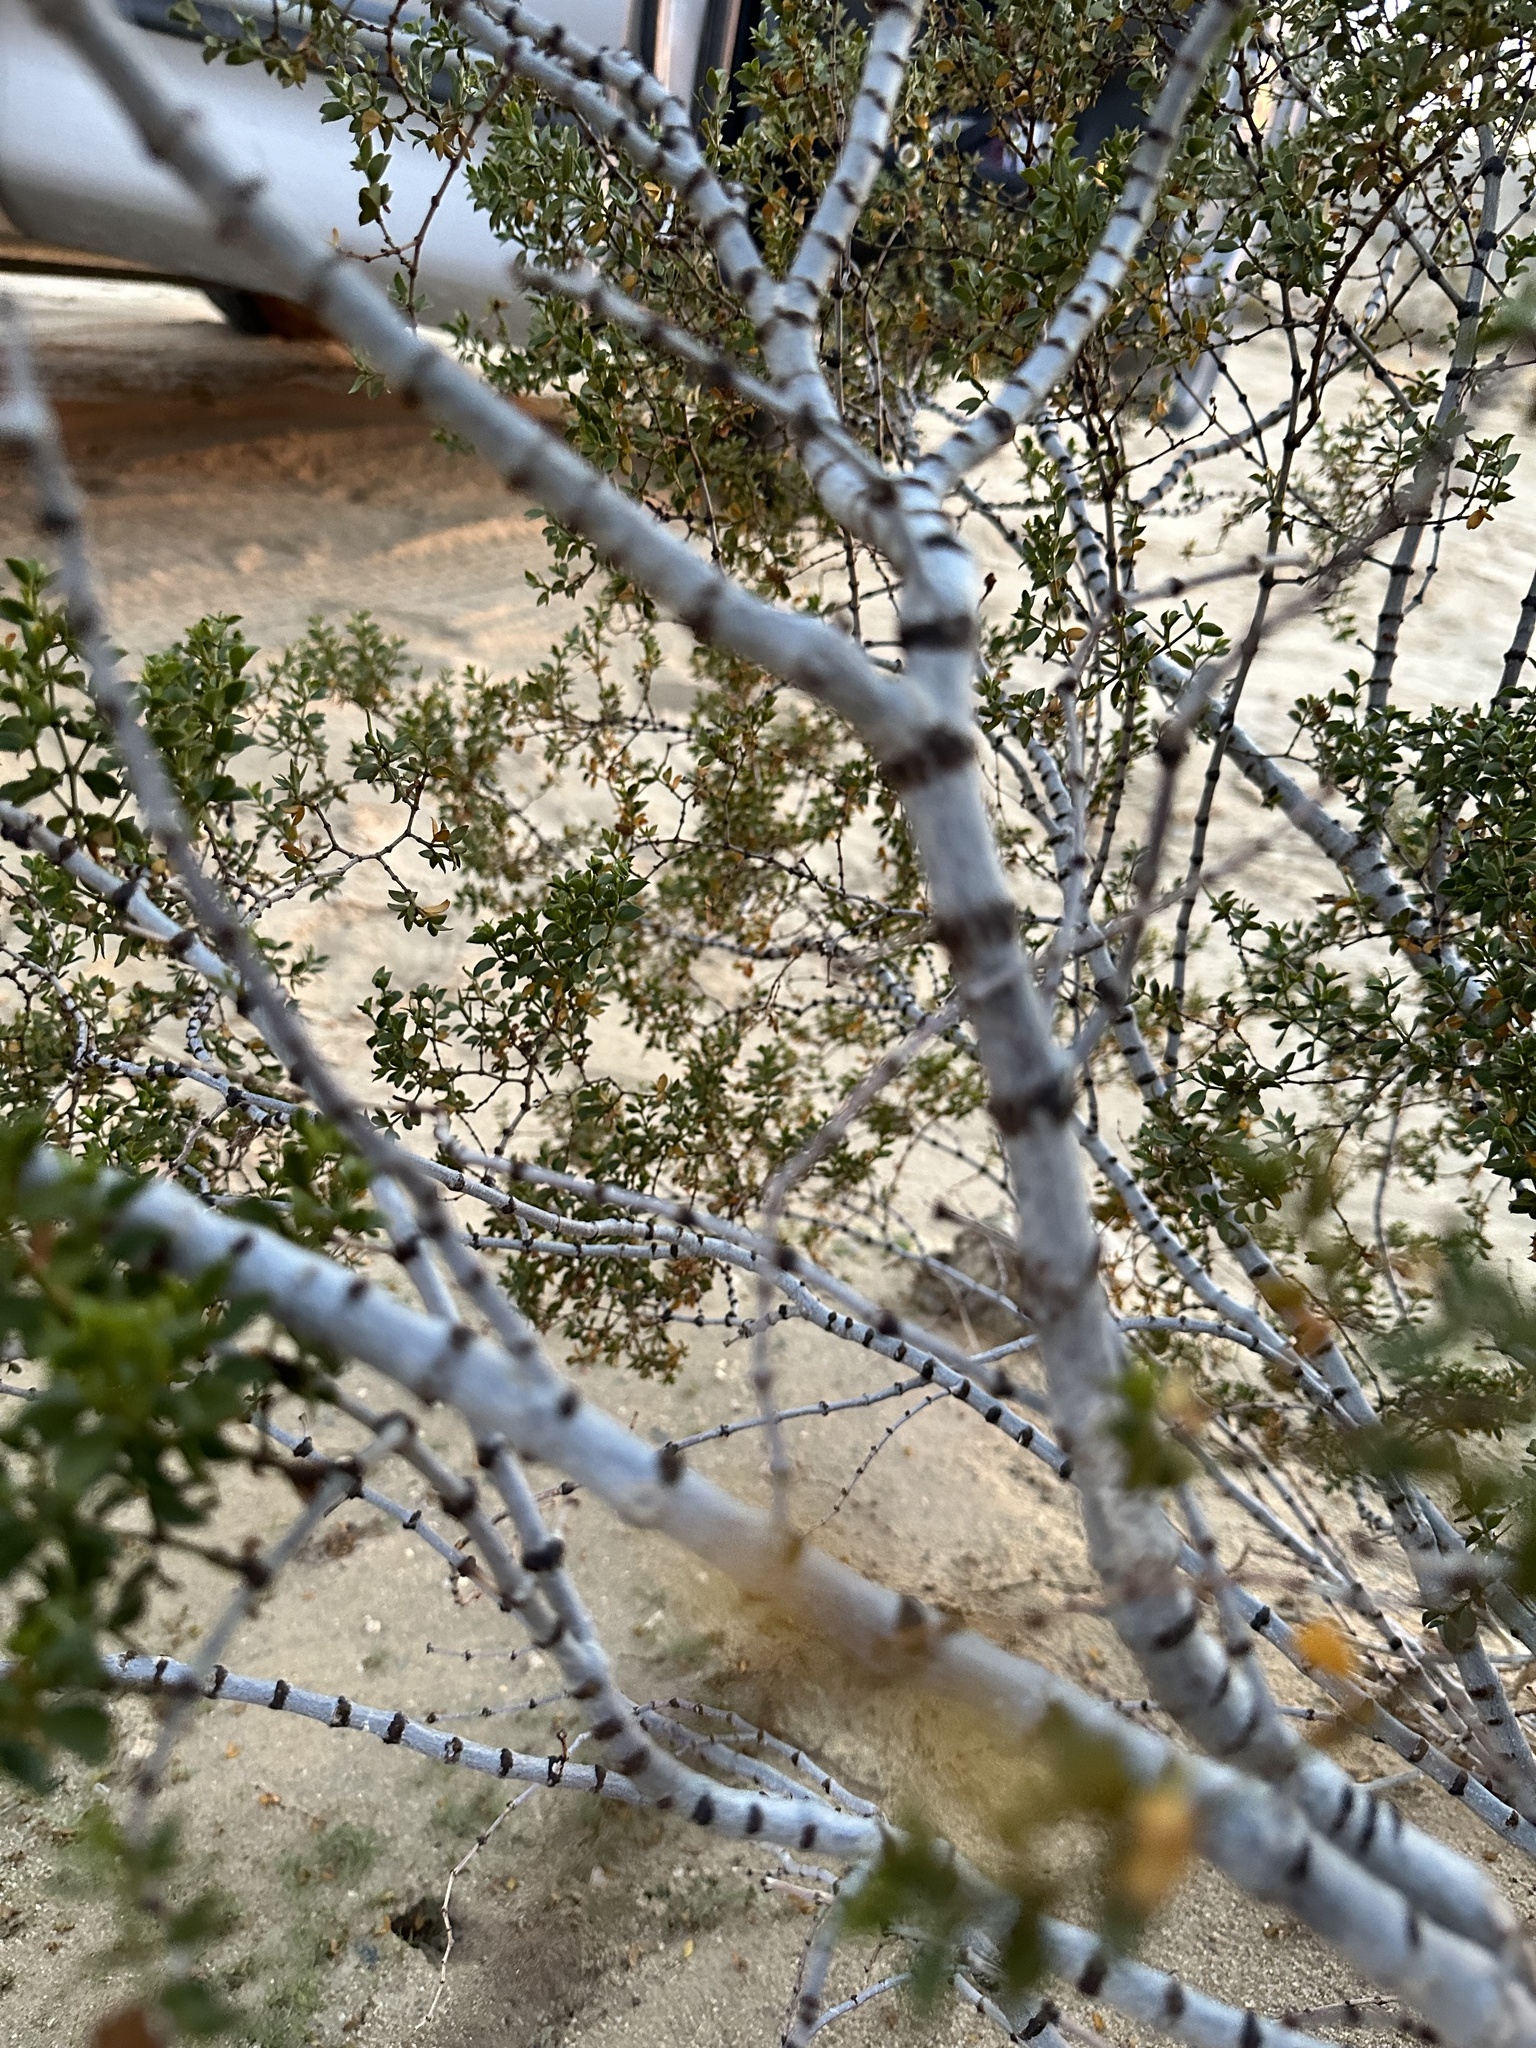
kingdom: Plantae
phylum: Tracheophyta
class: Magnoliopsida
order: Zygophyllales
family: Zygophyllaceae
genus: Larrea
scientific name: Larrea tridentata
